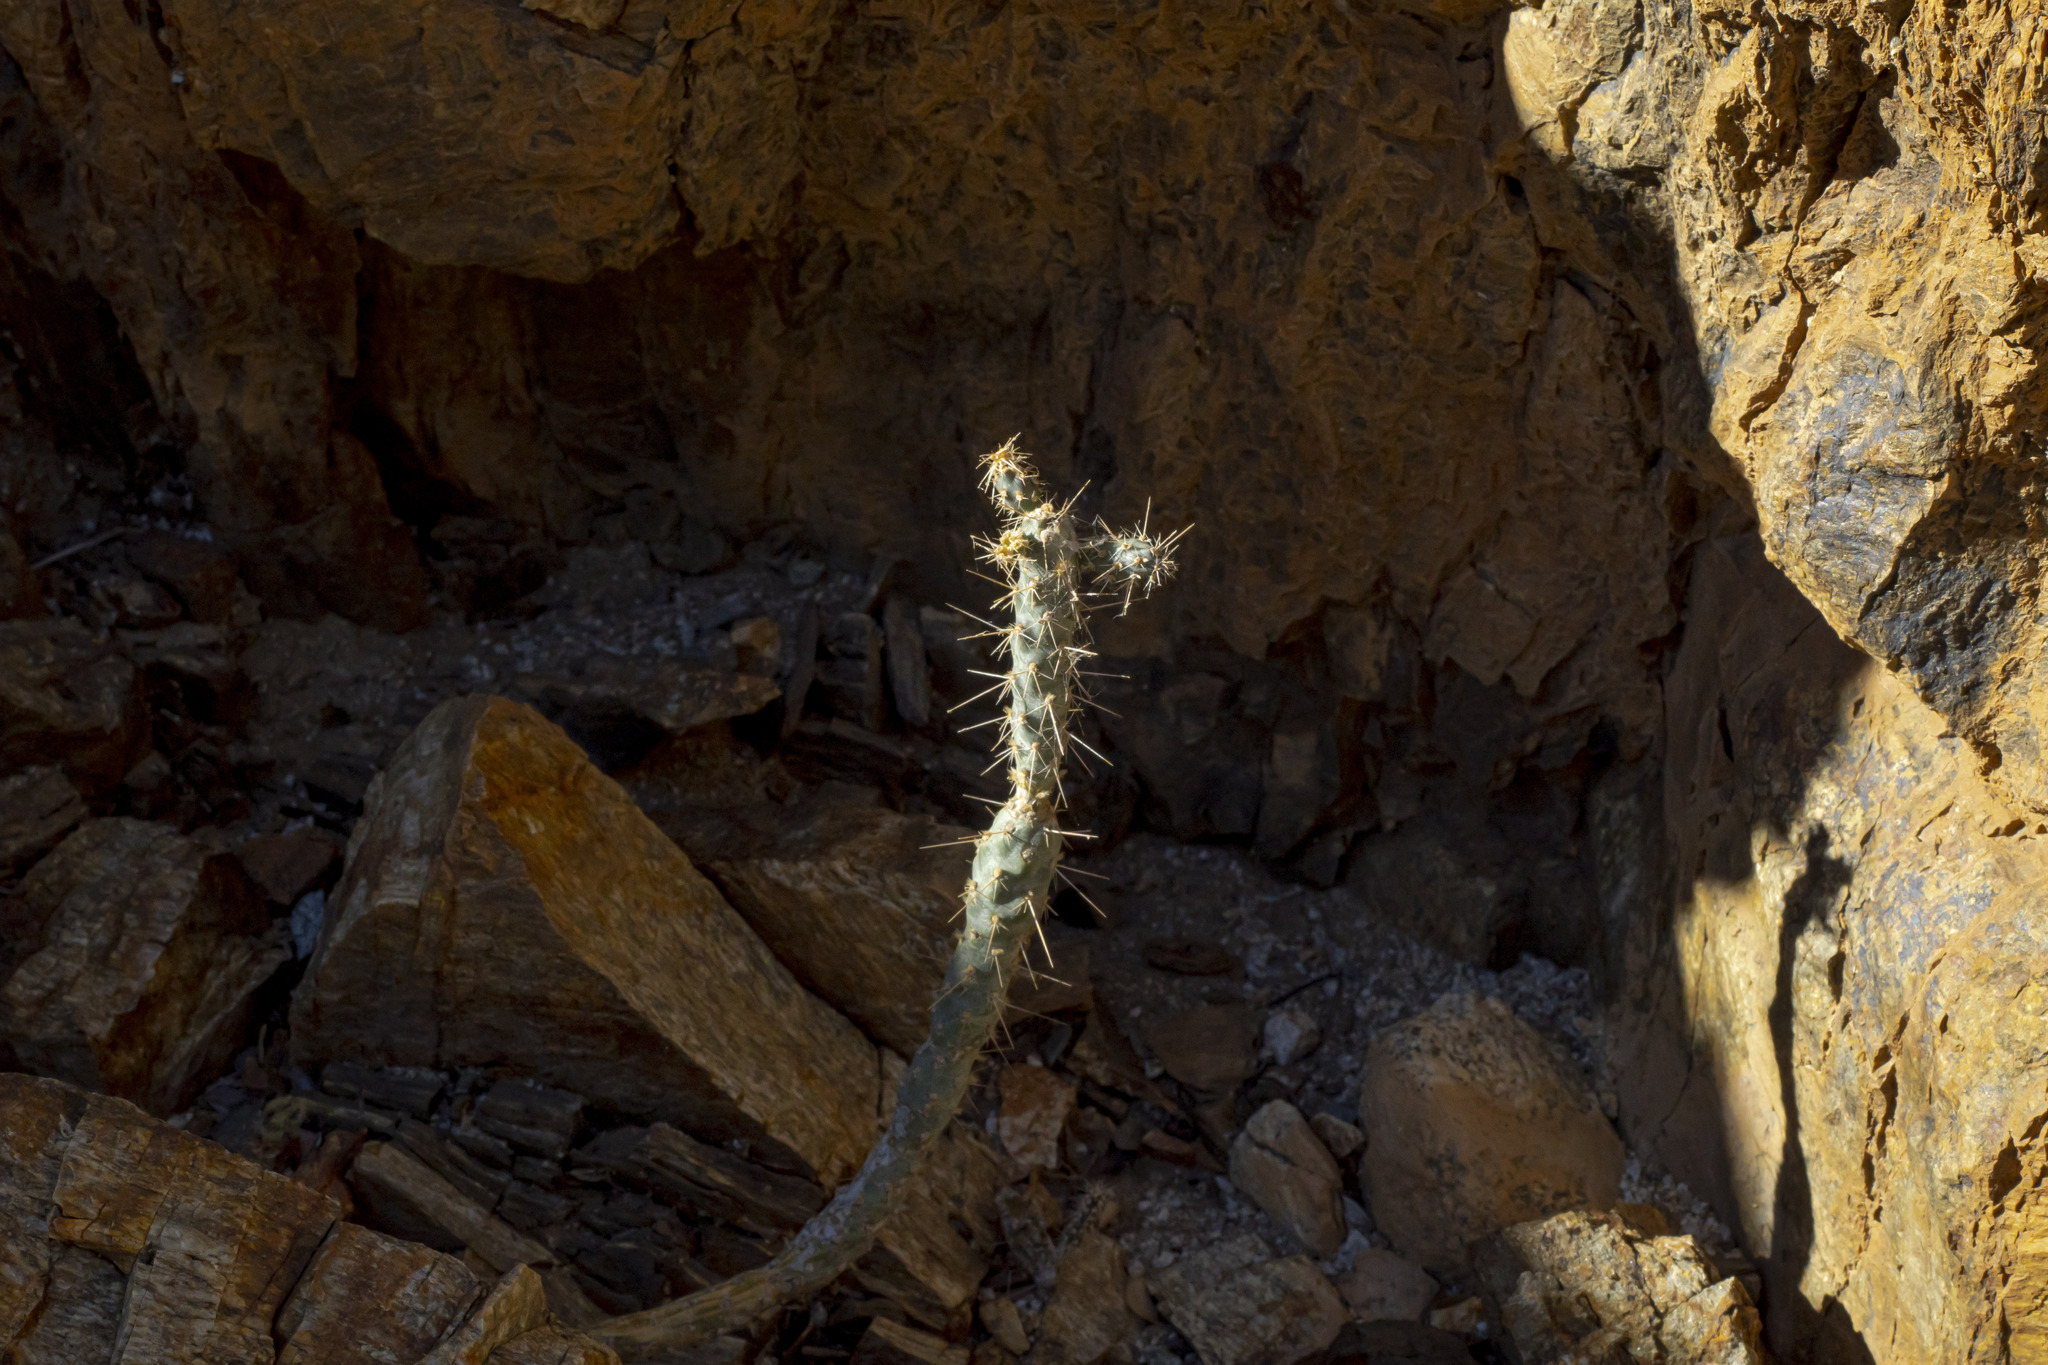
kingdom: Plantae
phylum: Tracheophyta
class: Magnoliopsida
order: Caryophyllales
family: Cactaceae
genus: Cylindropuntia
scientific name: Cylindropuntia cholla
